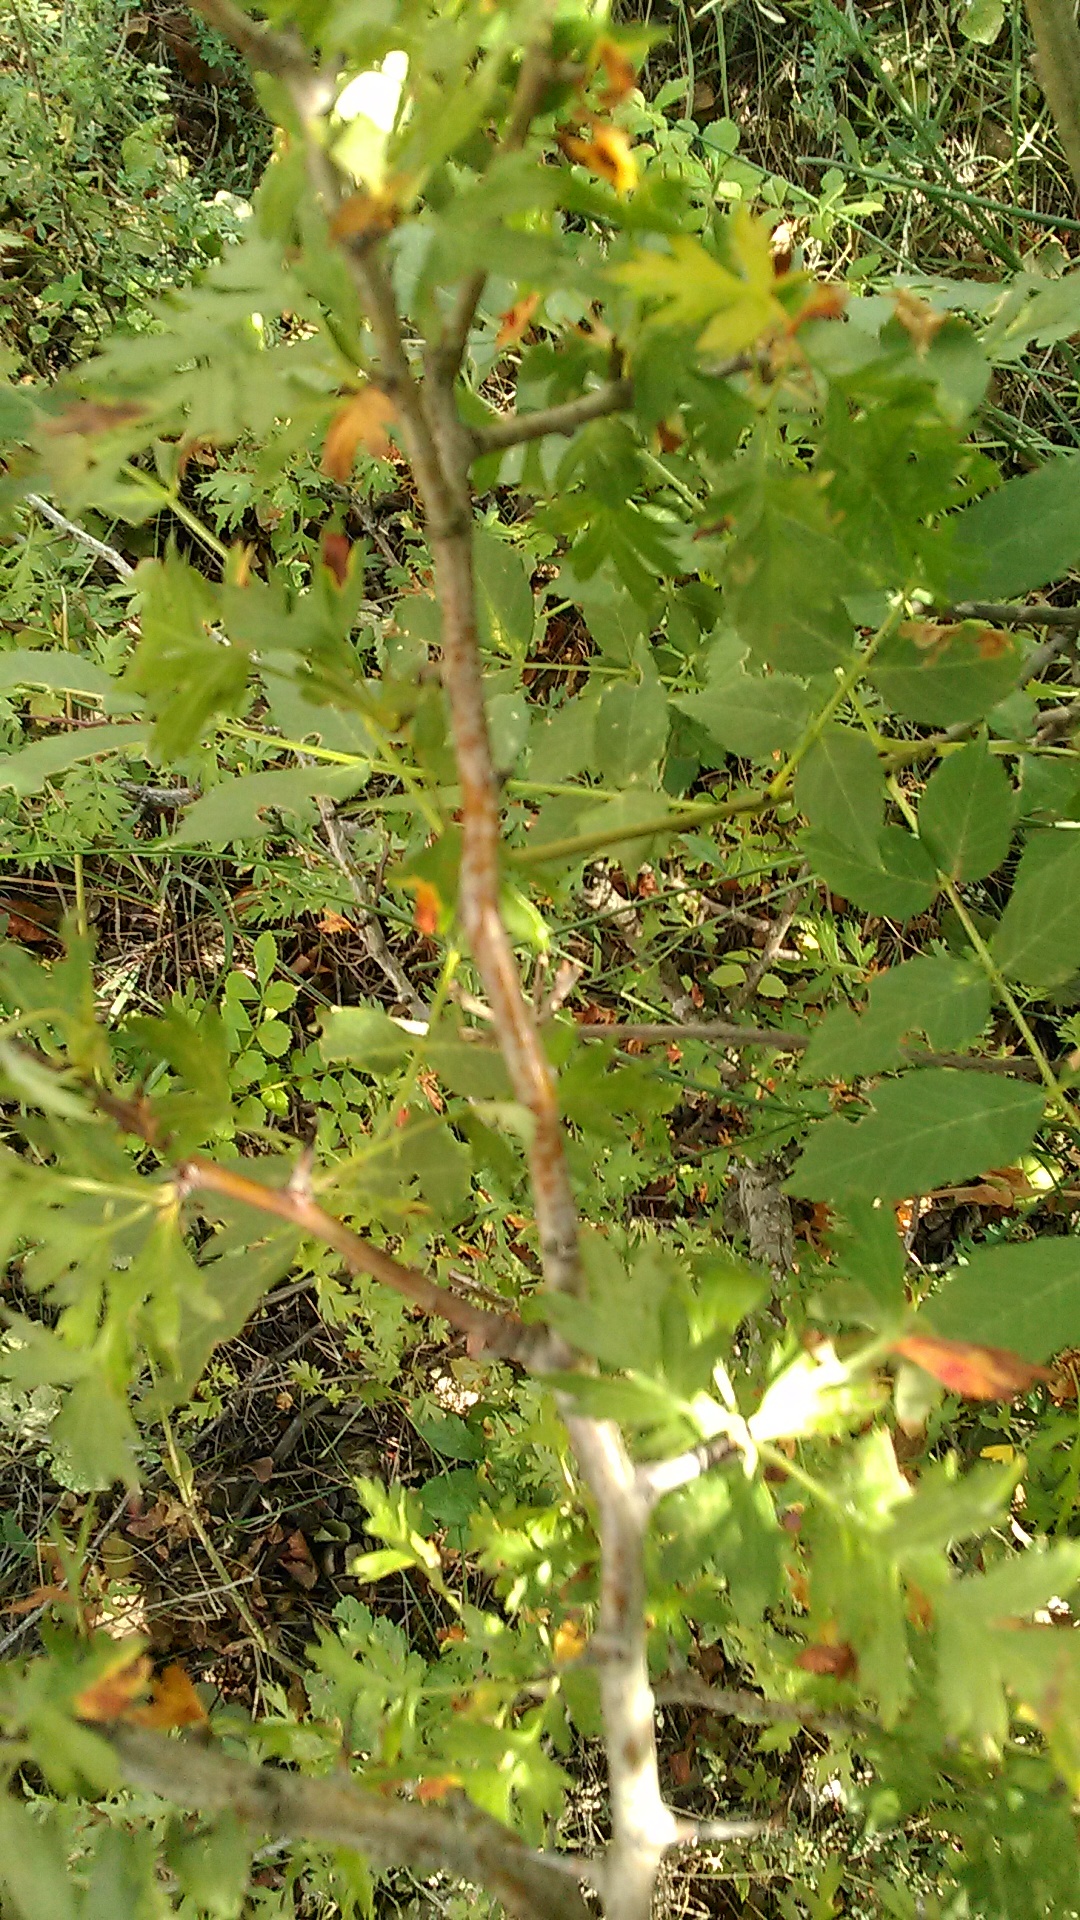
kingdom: Plantae
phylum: Tracheophyta
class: Magnoliopsida
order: Rosales
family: Rosaceae
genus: Crataegus
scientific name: Crataegus monogyna
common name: Hawthorn
